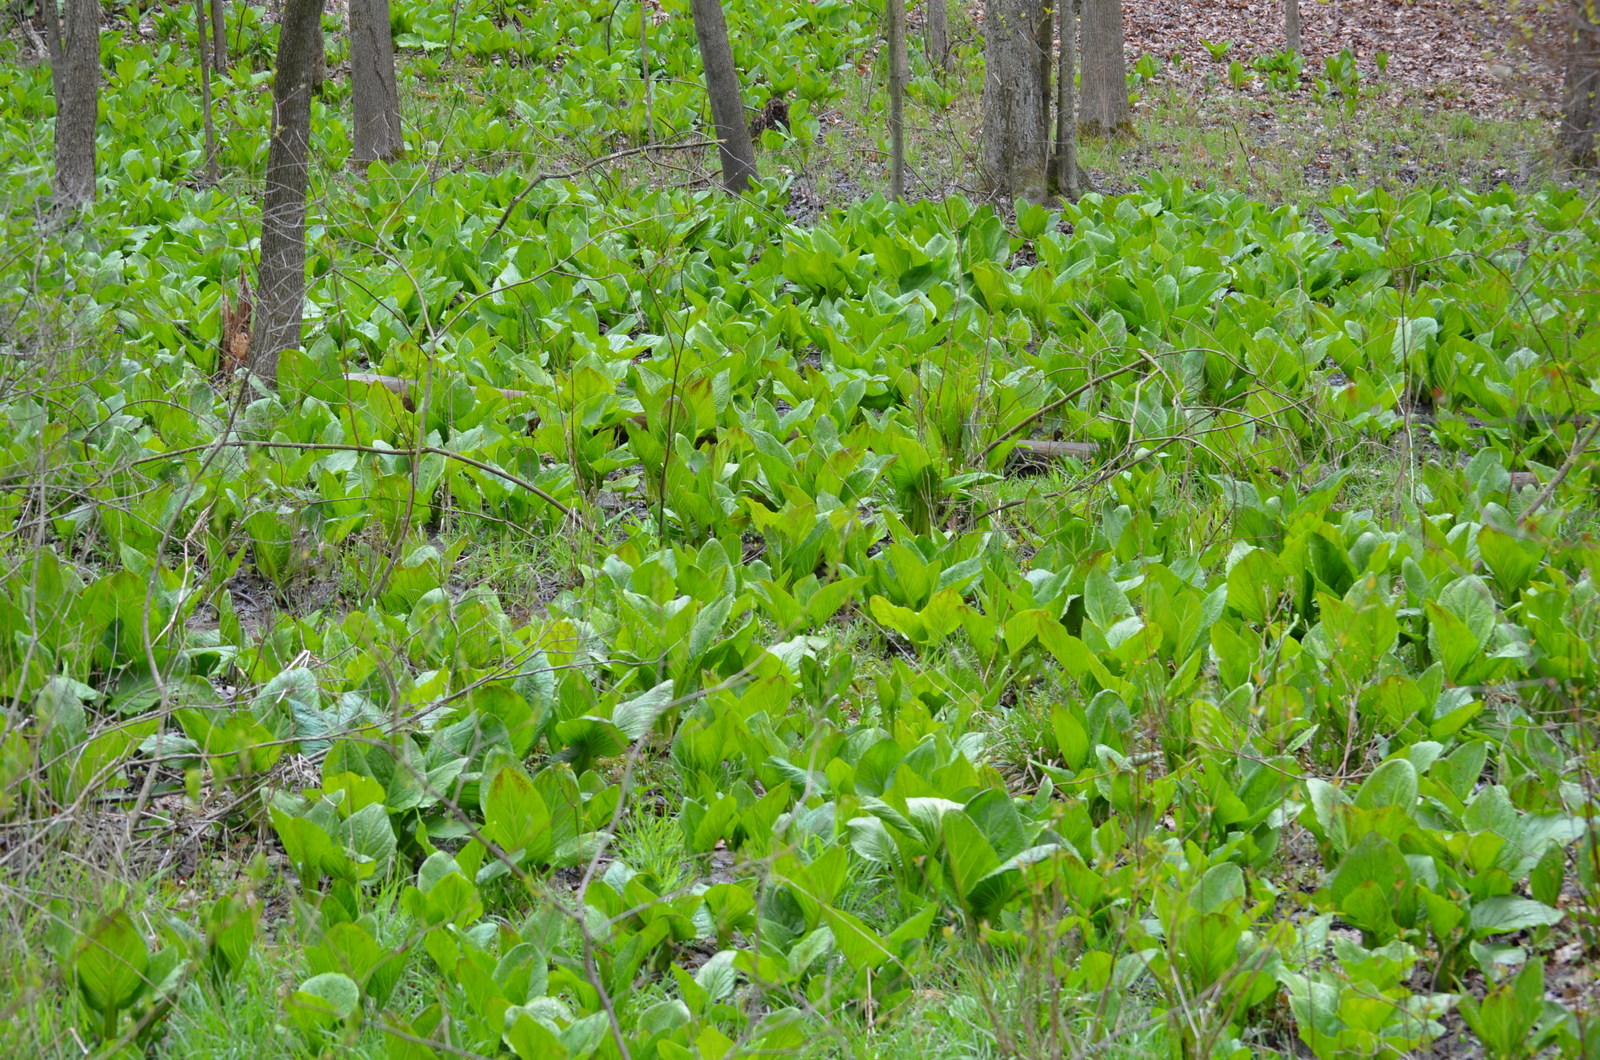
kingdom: Plantae
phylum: Tracheophyta
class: Liliopsida
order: Alismatales
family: Araceae
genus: Symplocarpus
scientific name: Symplocarpus foetidus
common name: Eastern skunk cabbage
